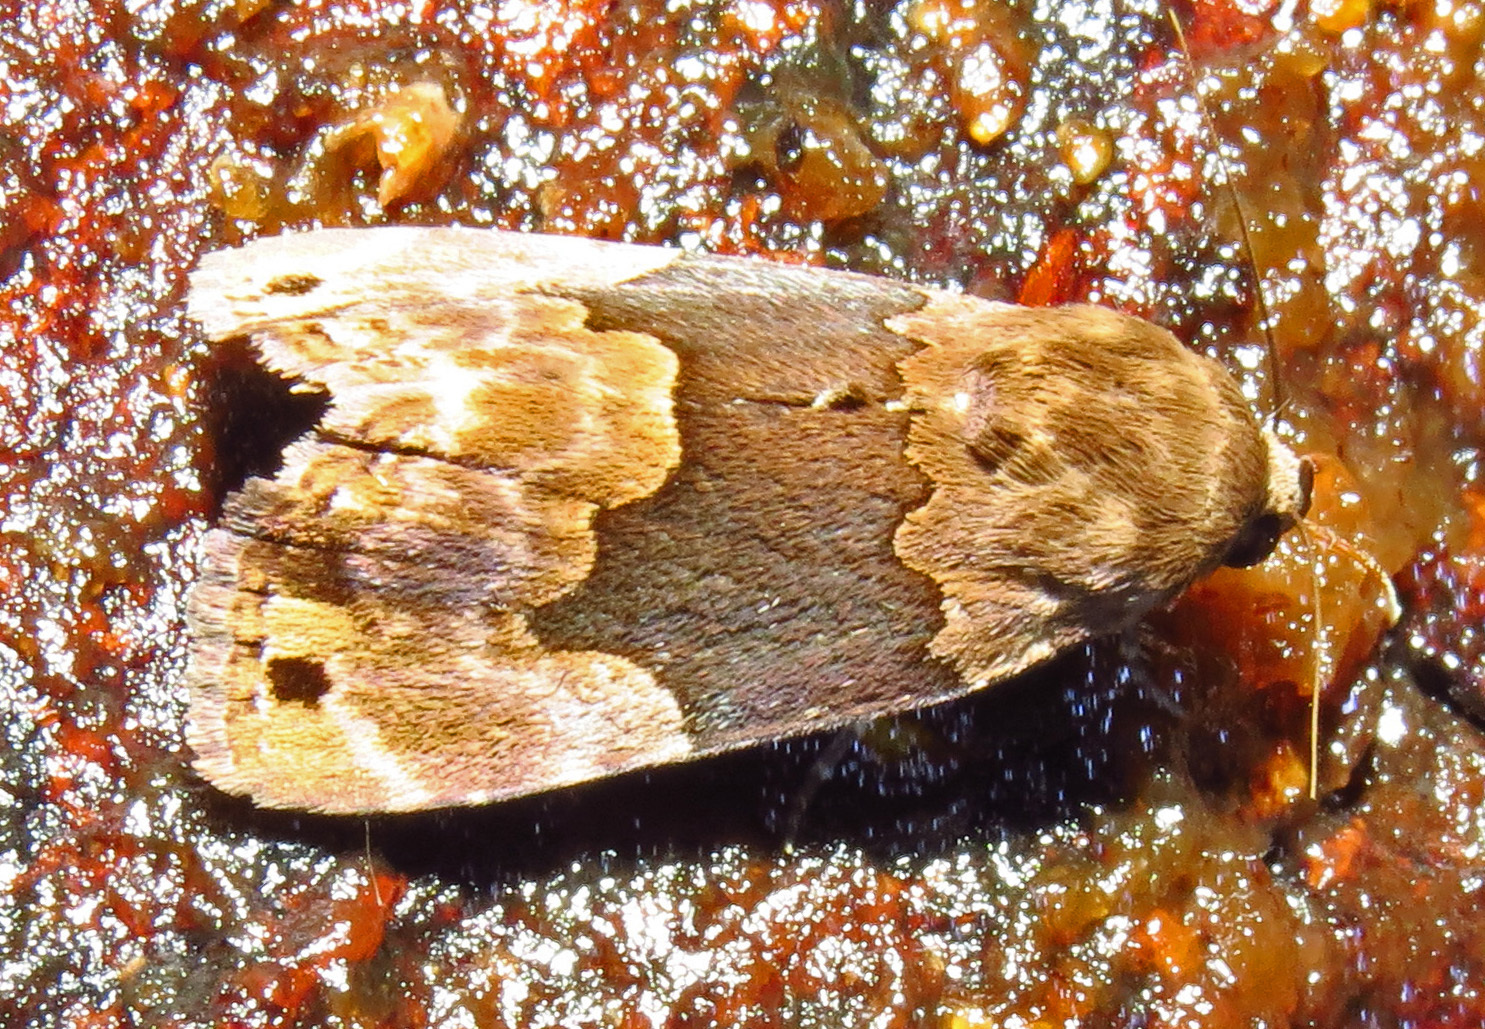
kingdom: Animalia
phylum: Arthropoda
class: Insecta
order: Lepidoptera
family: Erebidae
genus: Dinumma
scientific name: Dinumma deponens
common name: Purplish moth
